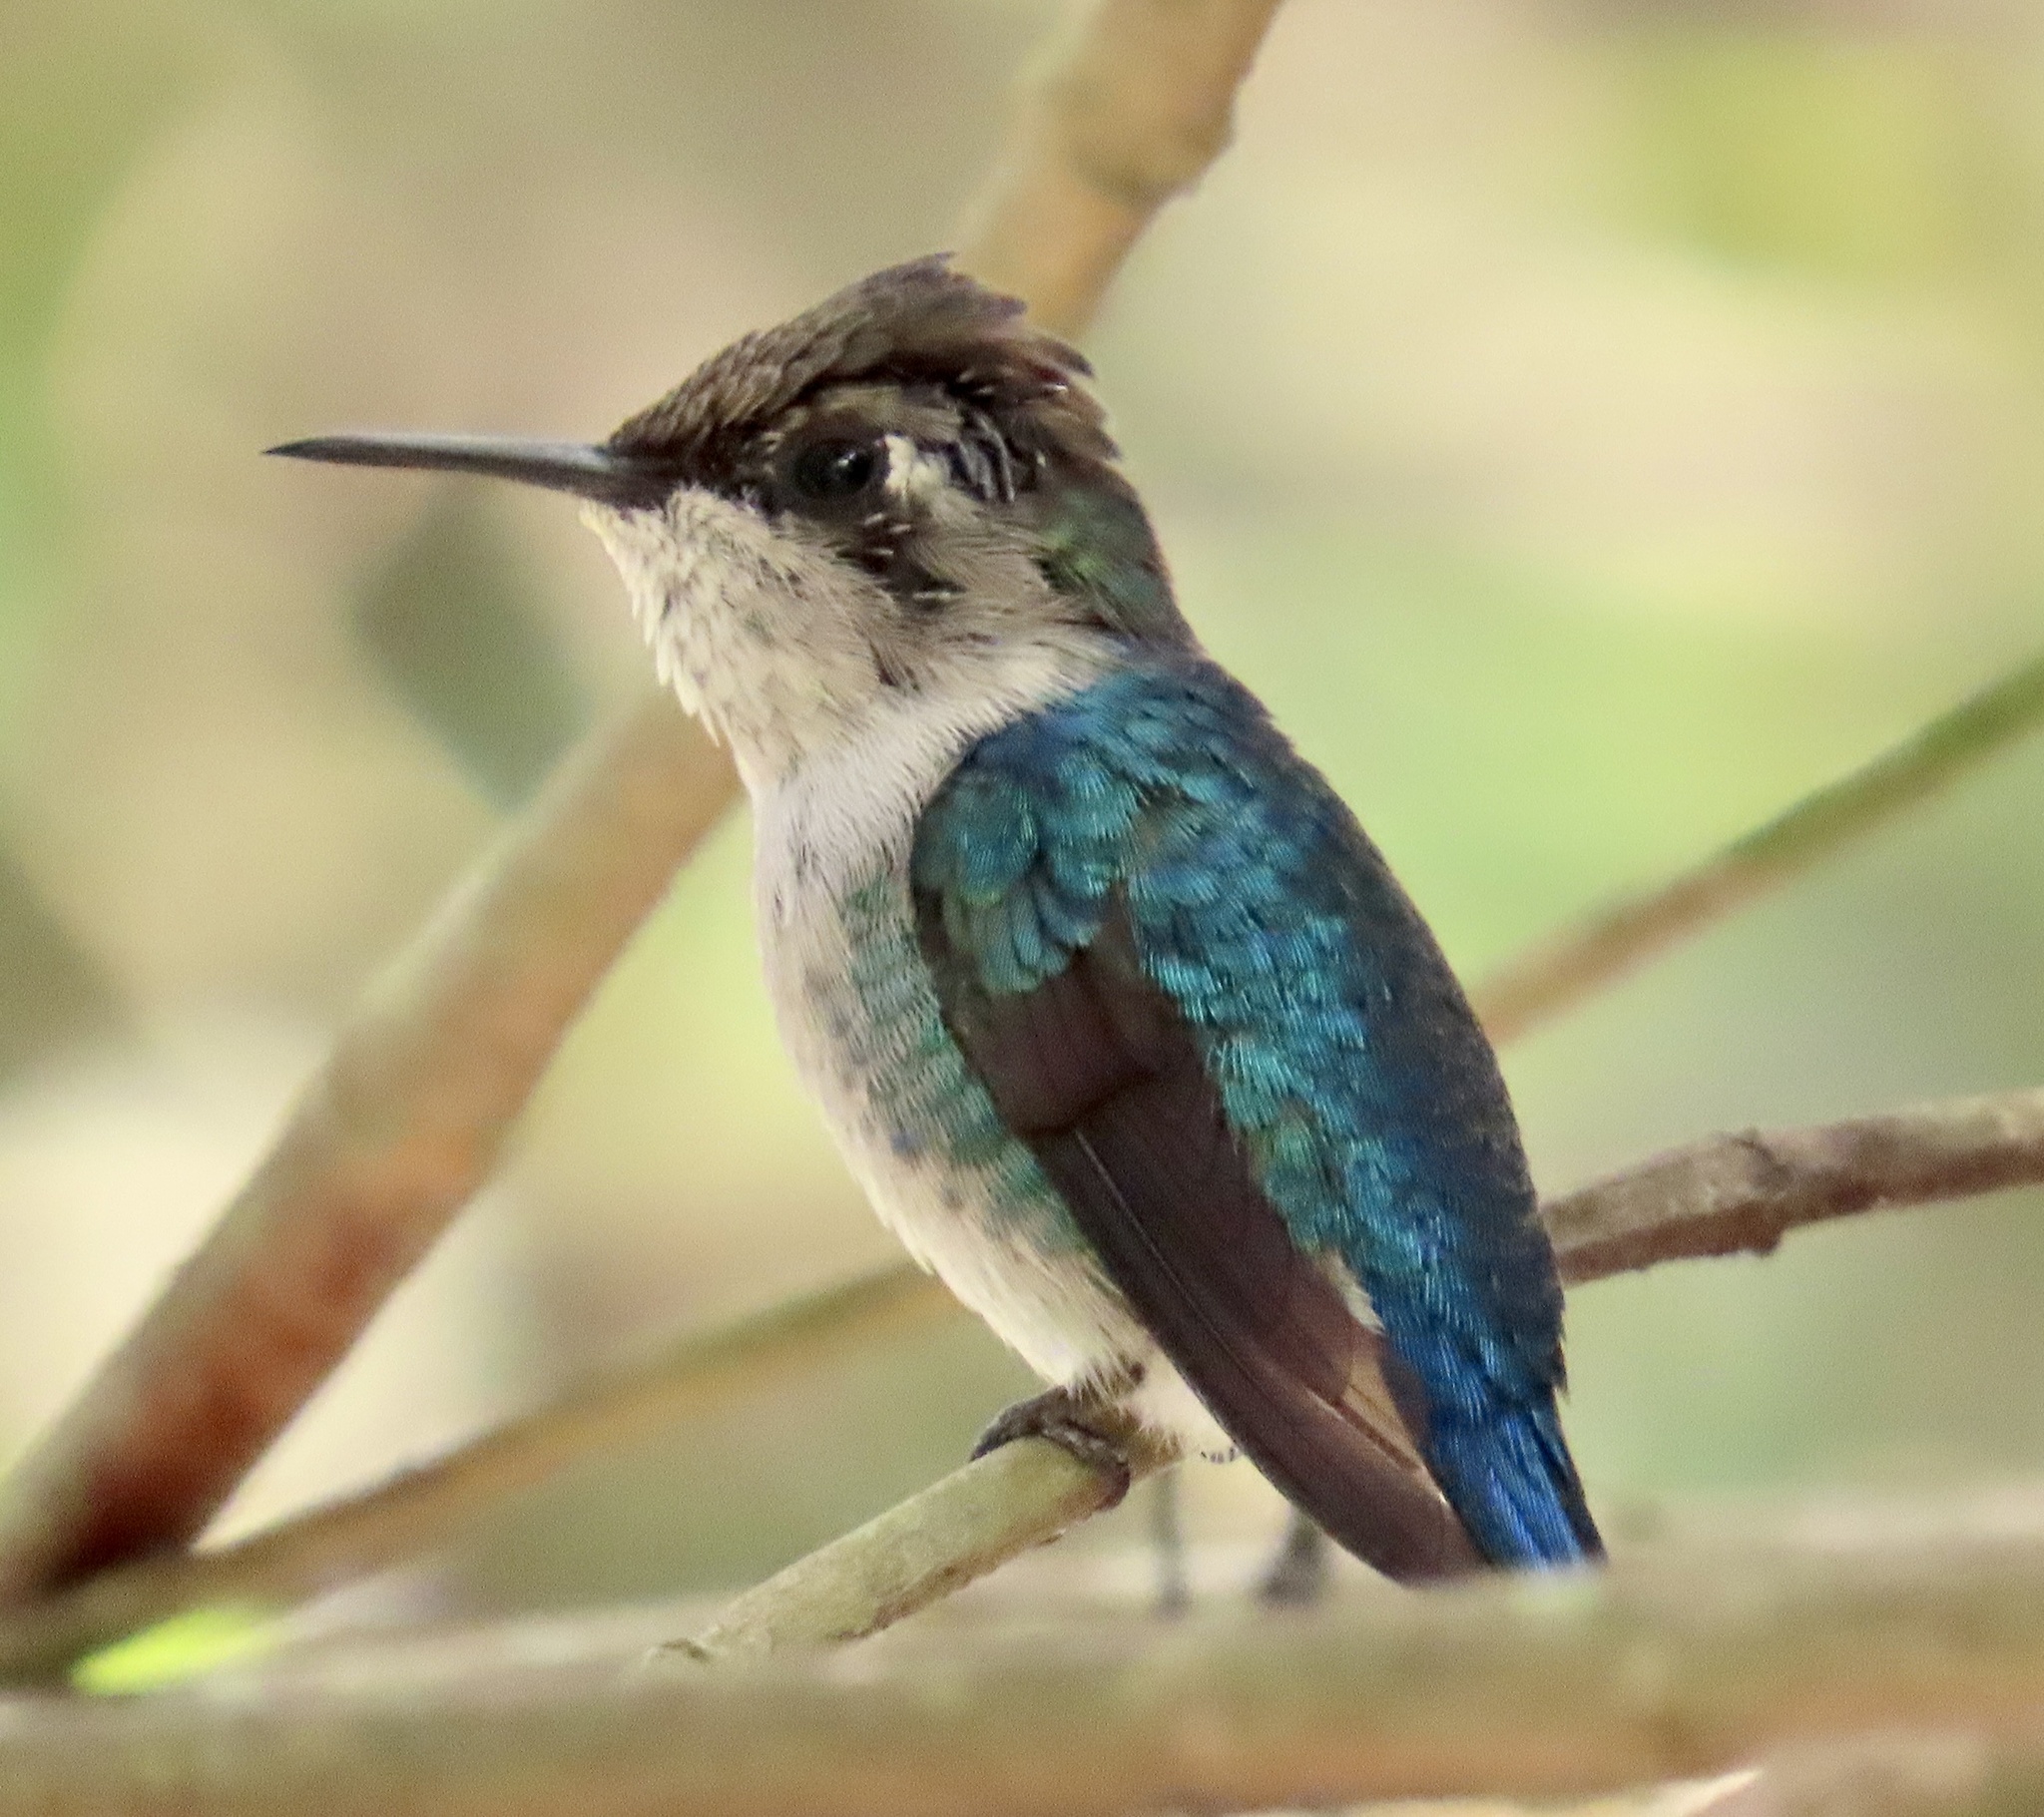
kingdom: Animalia
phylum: Chordata
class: Aves
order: Apodiformes
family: Trochilidae
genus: Mellisuga
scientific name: Mellisuga helenae
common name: Bee hummingbird
